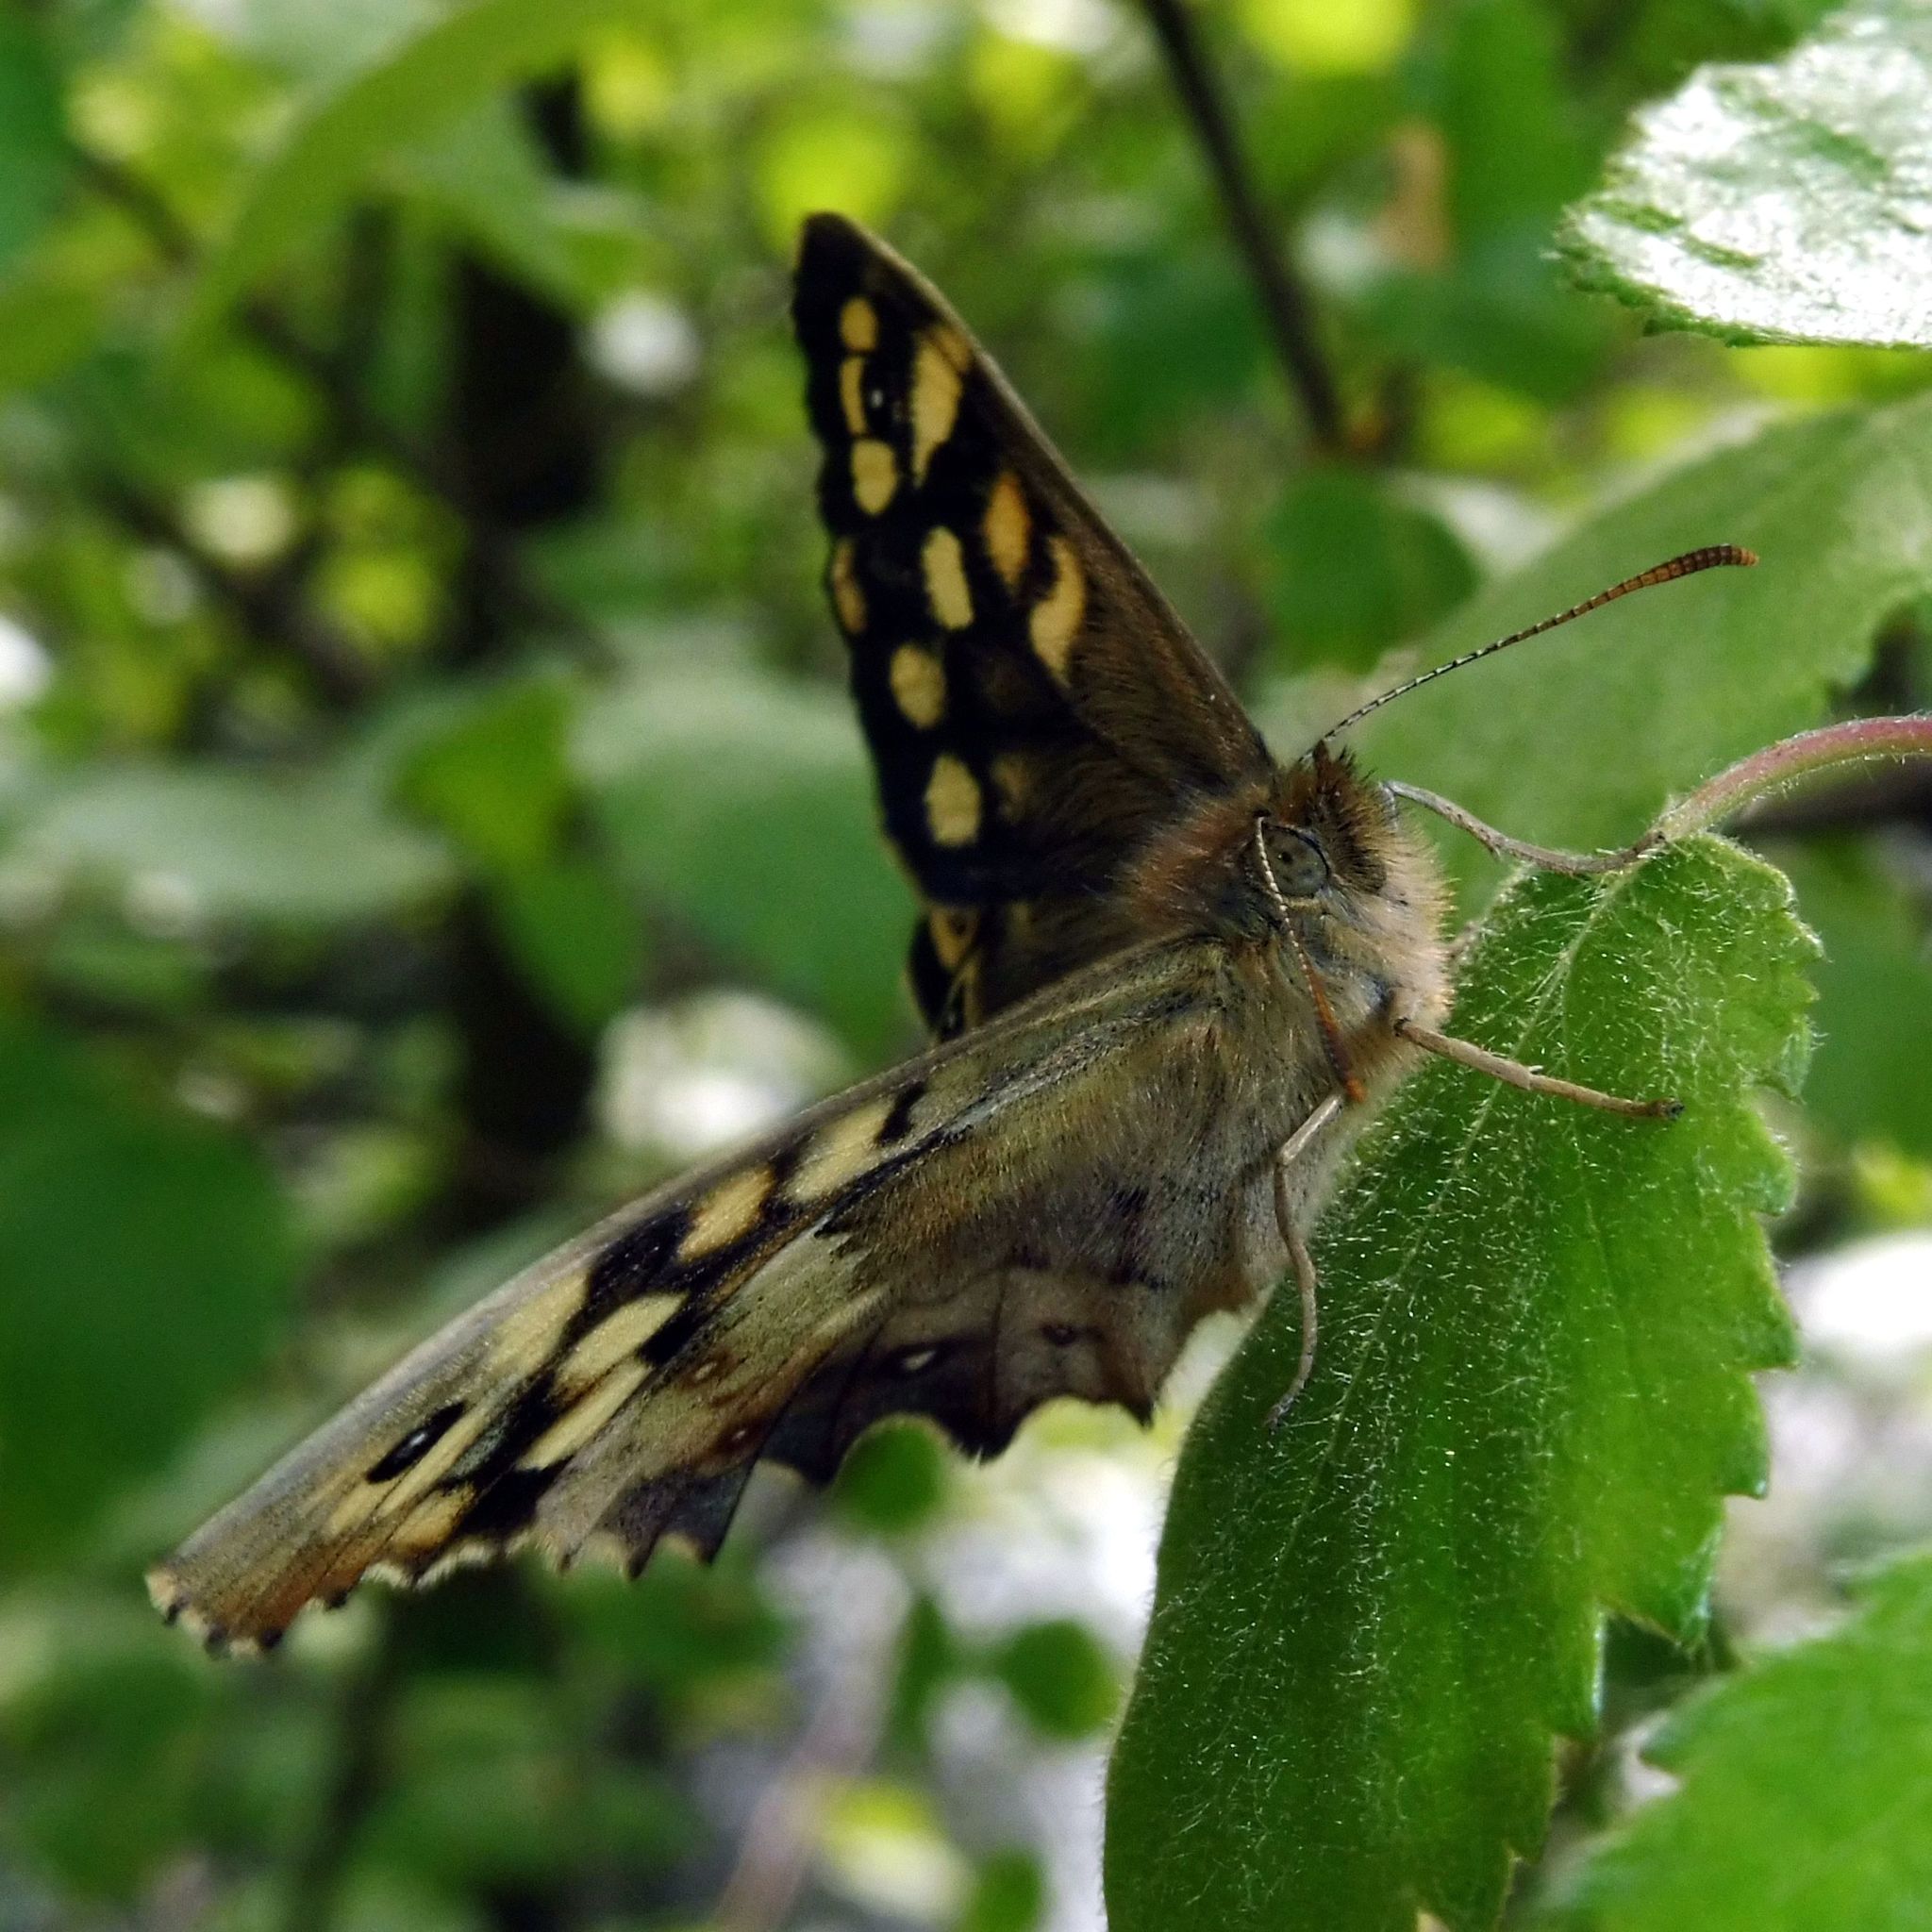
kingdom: Animalia
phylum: Arthropoda
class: Insecta
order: Lepidoptera
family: Nymphalidae
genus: Pararge
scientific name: Pararge aegeria
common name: Speckled wood
